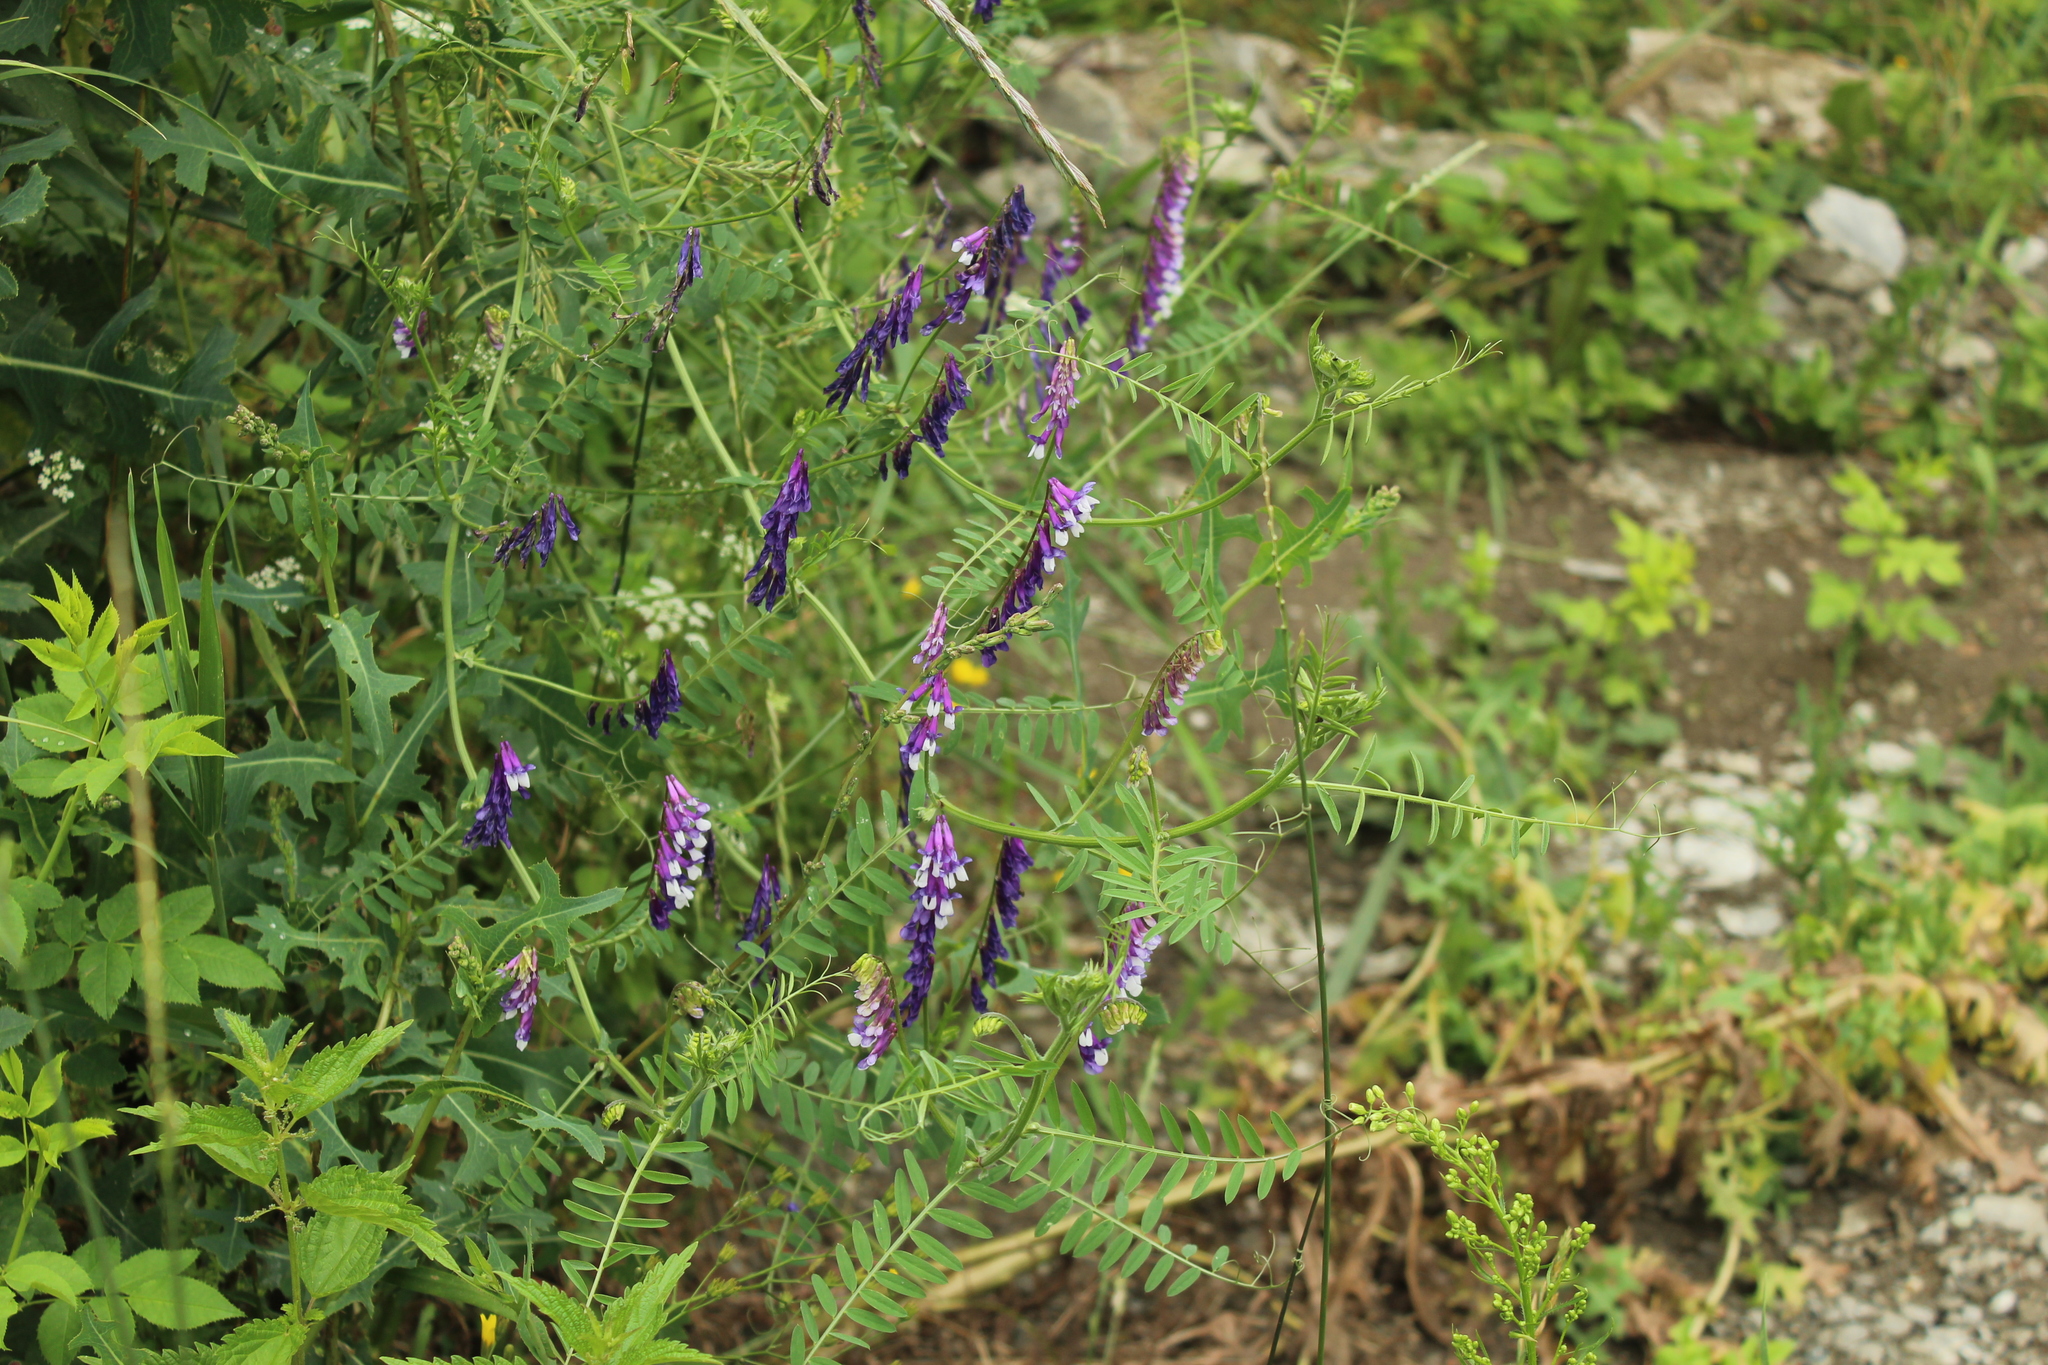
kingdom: Plantae
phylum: Tracheophyta
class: Magnoliopsida
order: Fabales
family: Fabaceae
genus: Vicia
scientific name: Vicia villosa
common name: Fodder vetch
